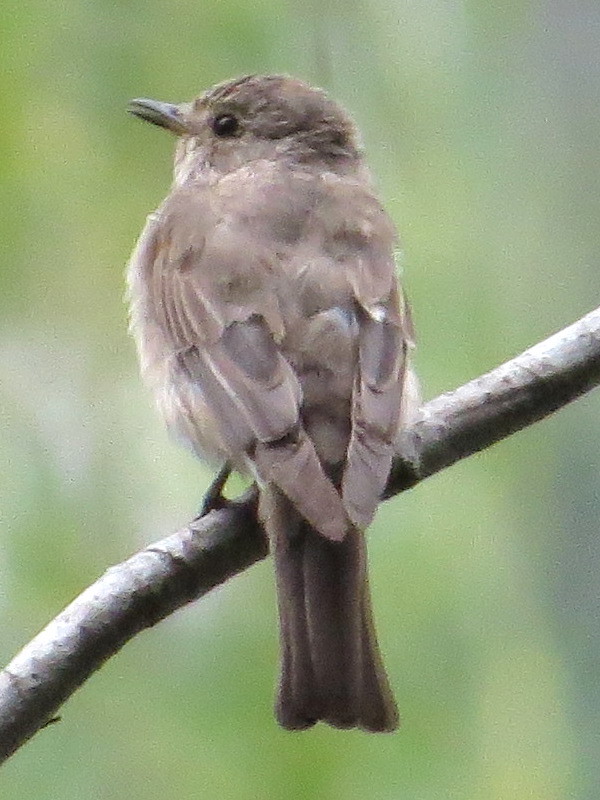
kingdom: Animalia
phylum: Chordata
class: Aves
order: Passeriformes
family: Muscicapidae
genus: Muscicapa
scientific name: Muscicapa striata
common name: Spotted flycatcher
